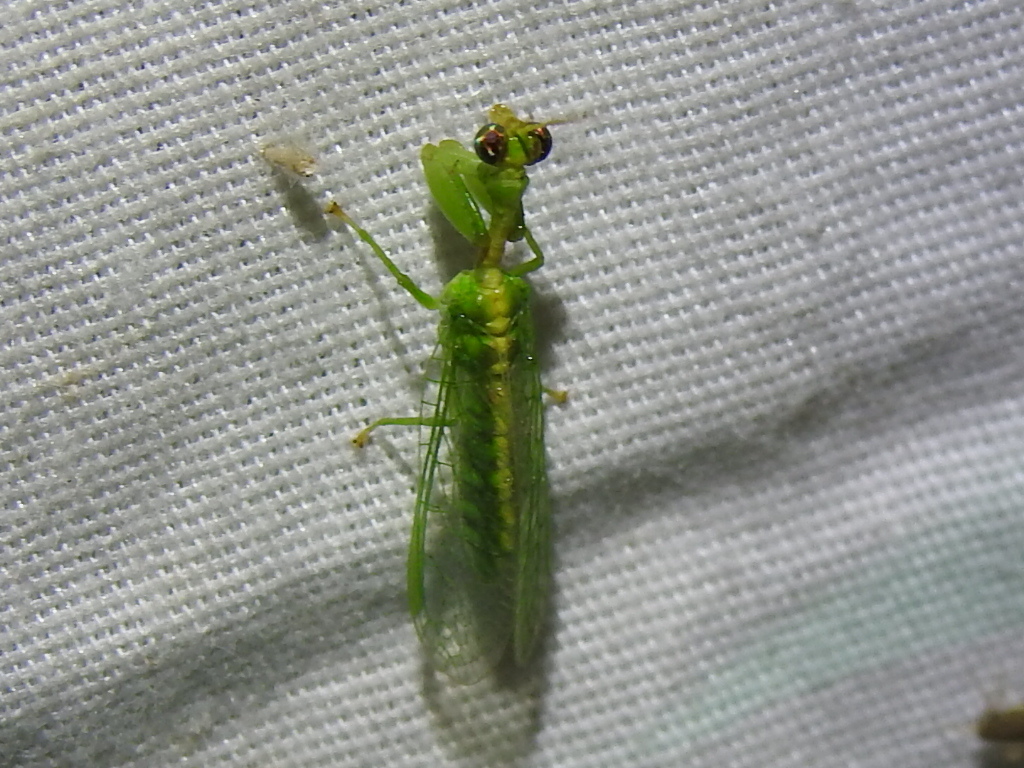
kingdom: Animalia
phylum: Arthropoda
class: Insecta
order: Neuroptera
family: Mantispidae
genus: Zeugomantispa
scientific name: Zeugomantispa minuta
